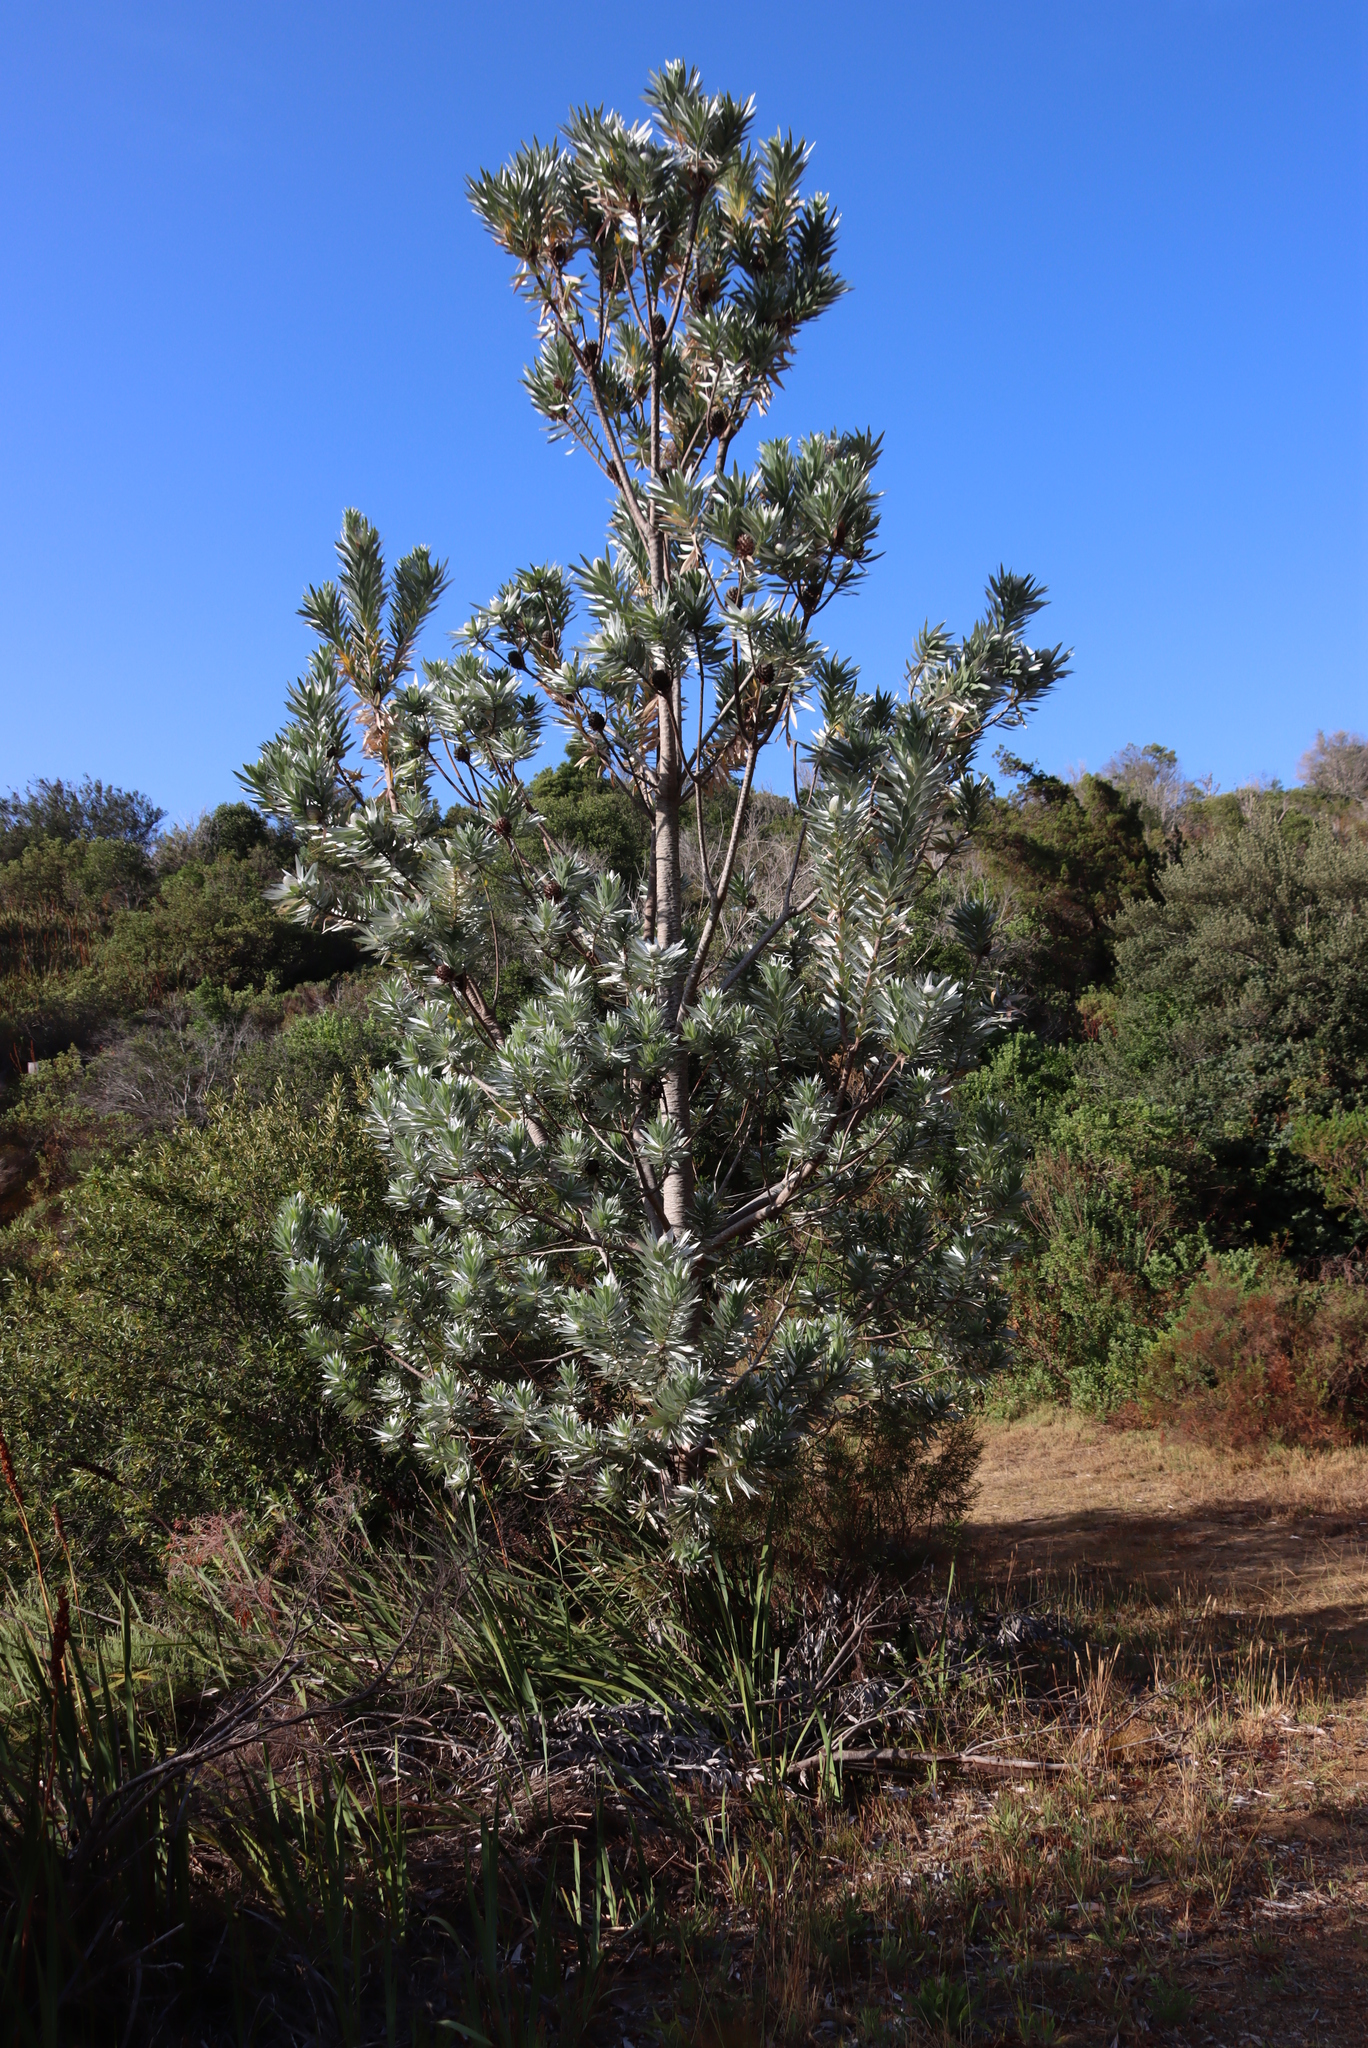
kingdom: Plantae
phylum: Tracheophyta
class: Magnoliopsida
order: Proteales
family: Proteaceae
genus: Leucadendron
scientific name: Leucadendron argenteum
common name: Cape silver tree
